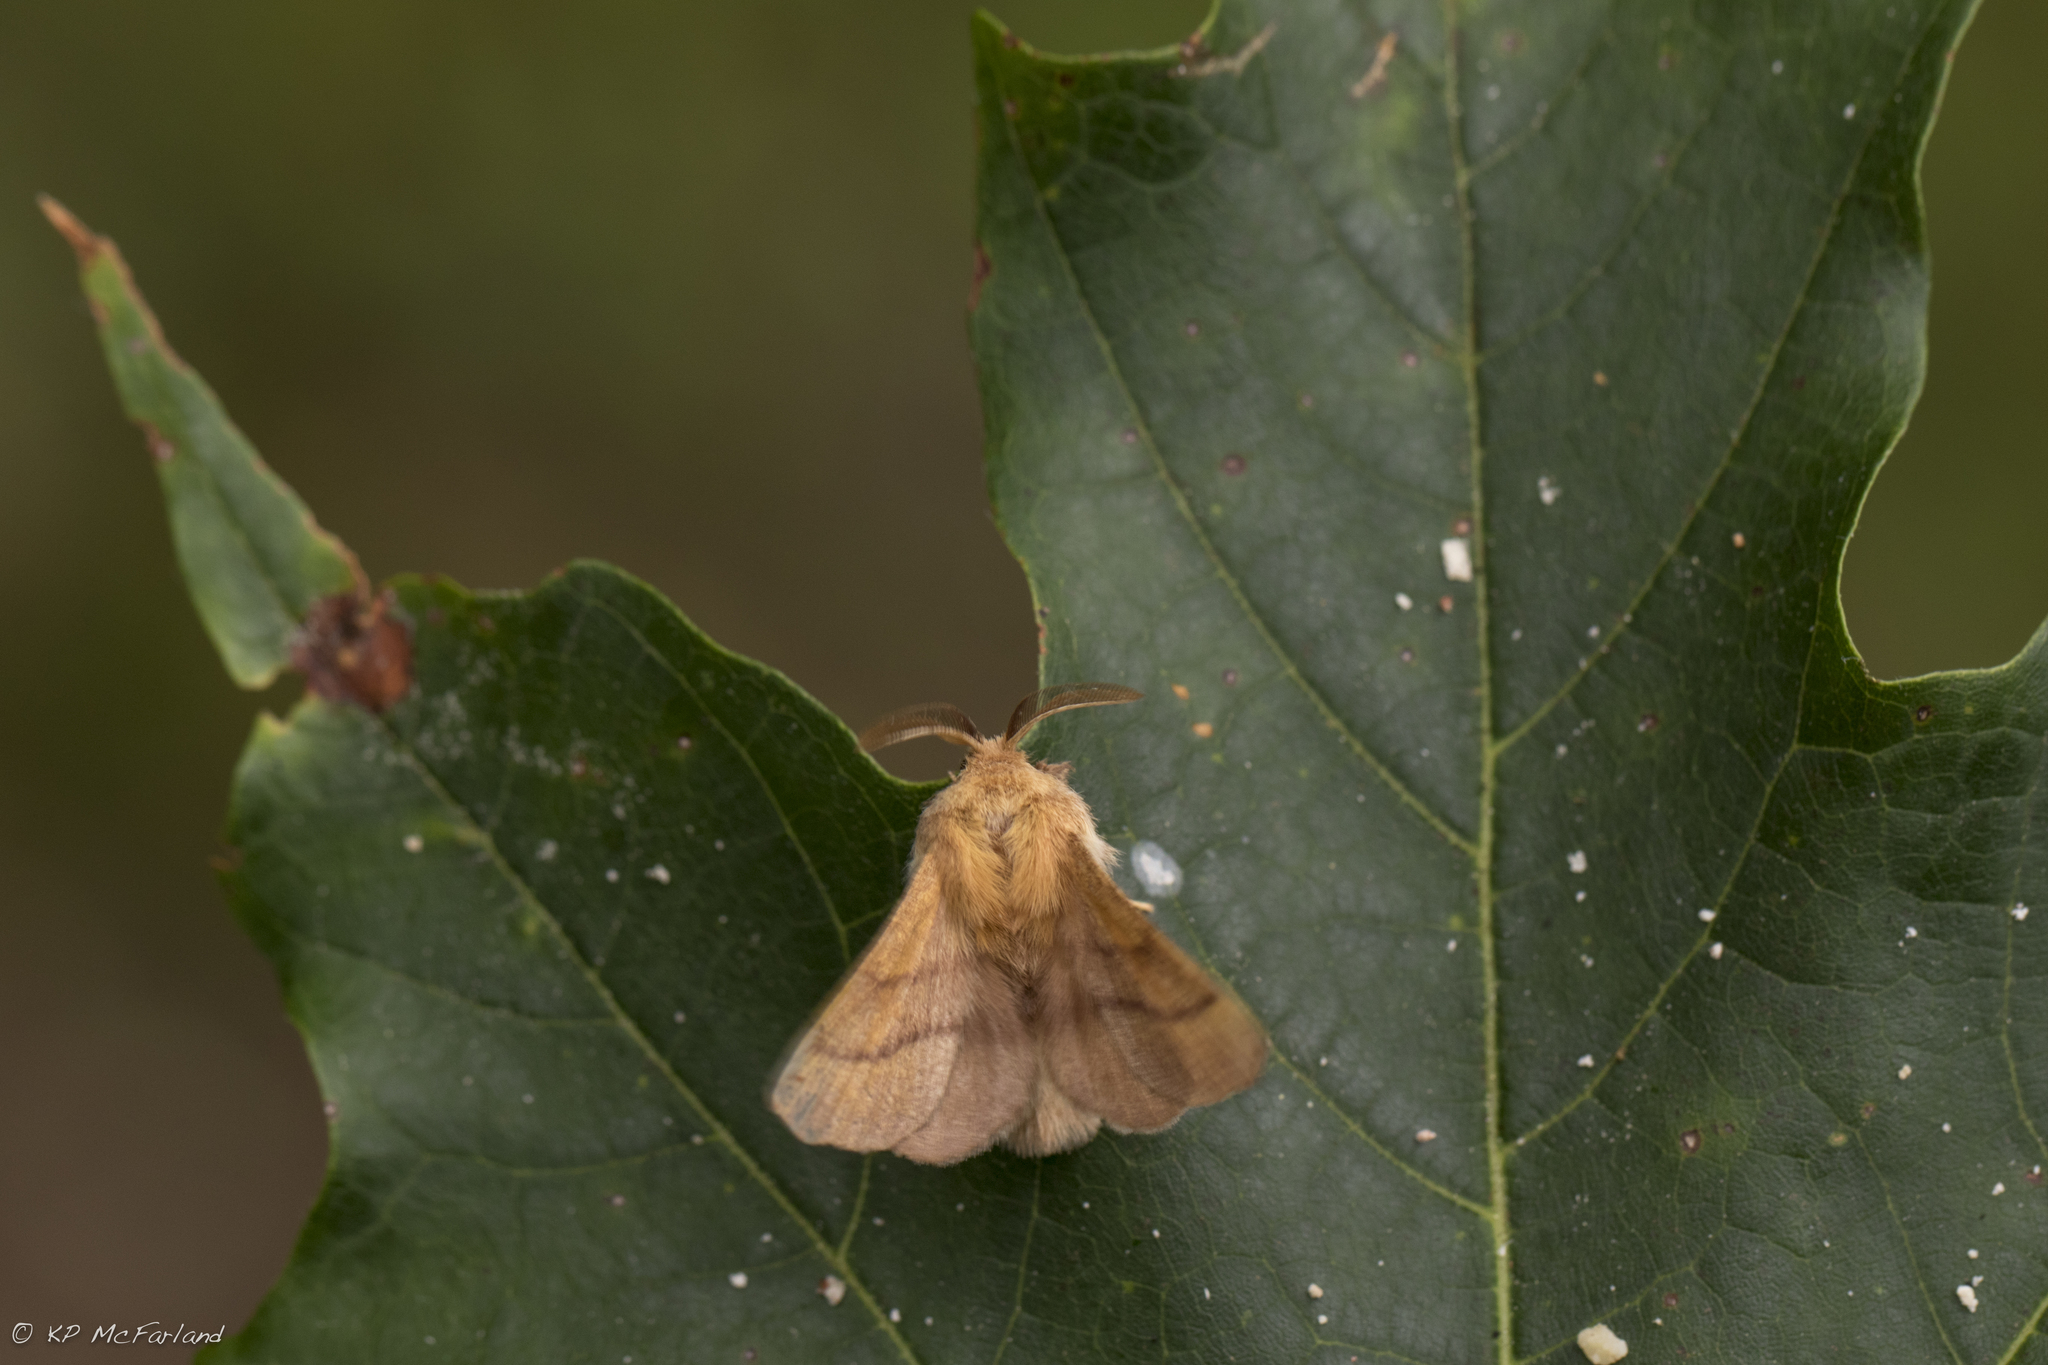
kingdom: Animalia
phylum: Arthropoda
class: Insecta
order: Lepidoptera
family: Lasiocampidae
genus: Malacosoma
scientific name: Malacosoma disstria
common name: Forest tent caterpillar
